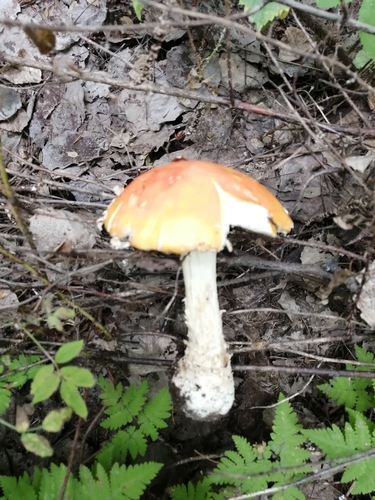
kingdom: Fungi
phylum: Basidiomycota
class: Agaricomycetes
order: Agaricales
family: Amanitaceae
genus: Amanita
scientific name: Amanita muscaria
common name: Fly agaric
